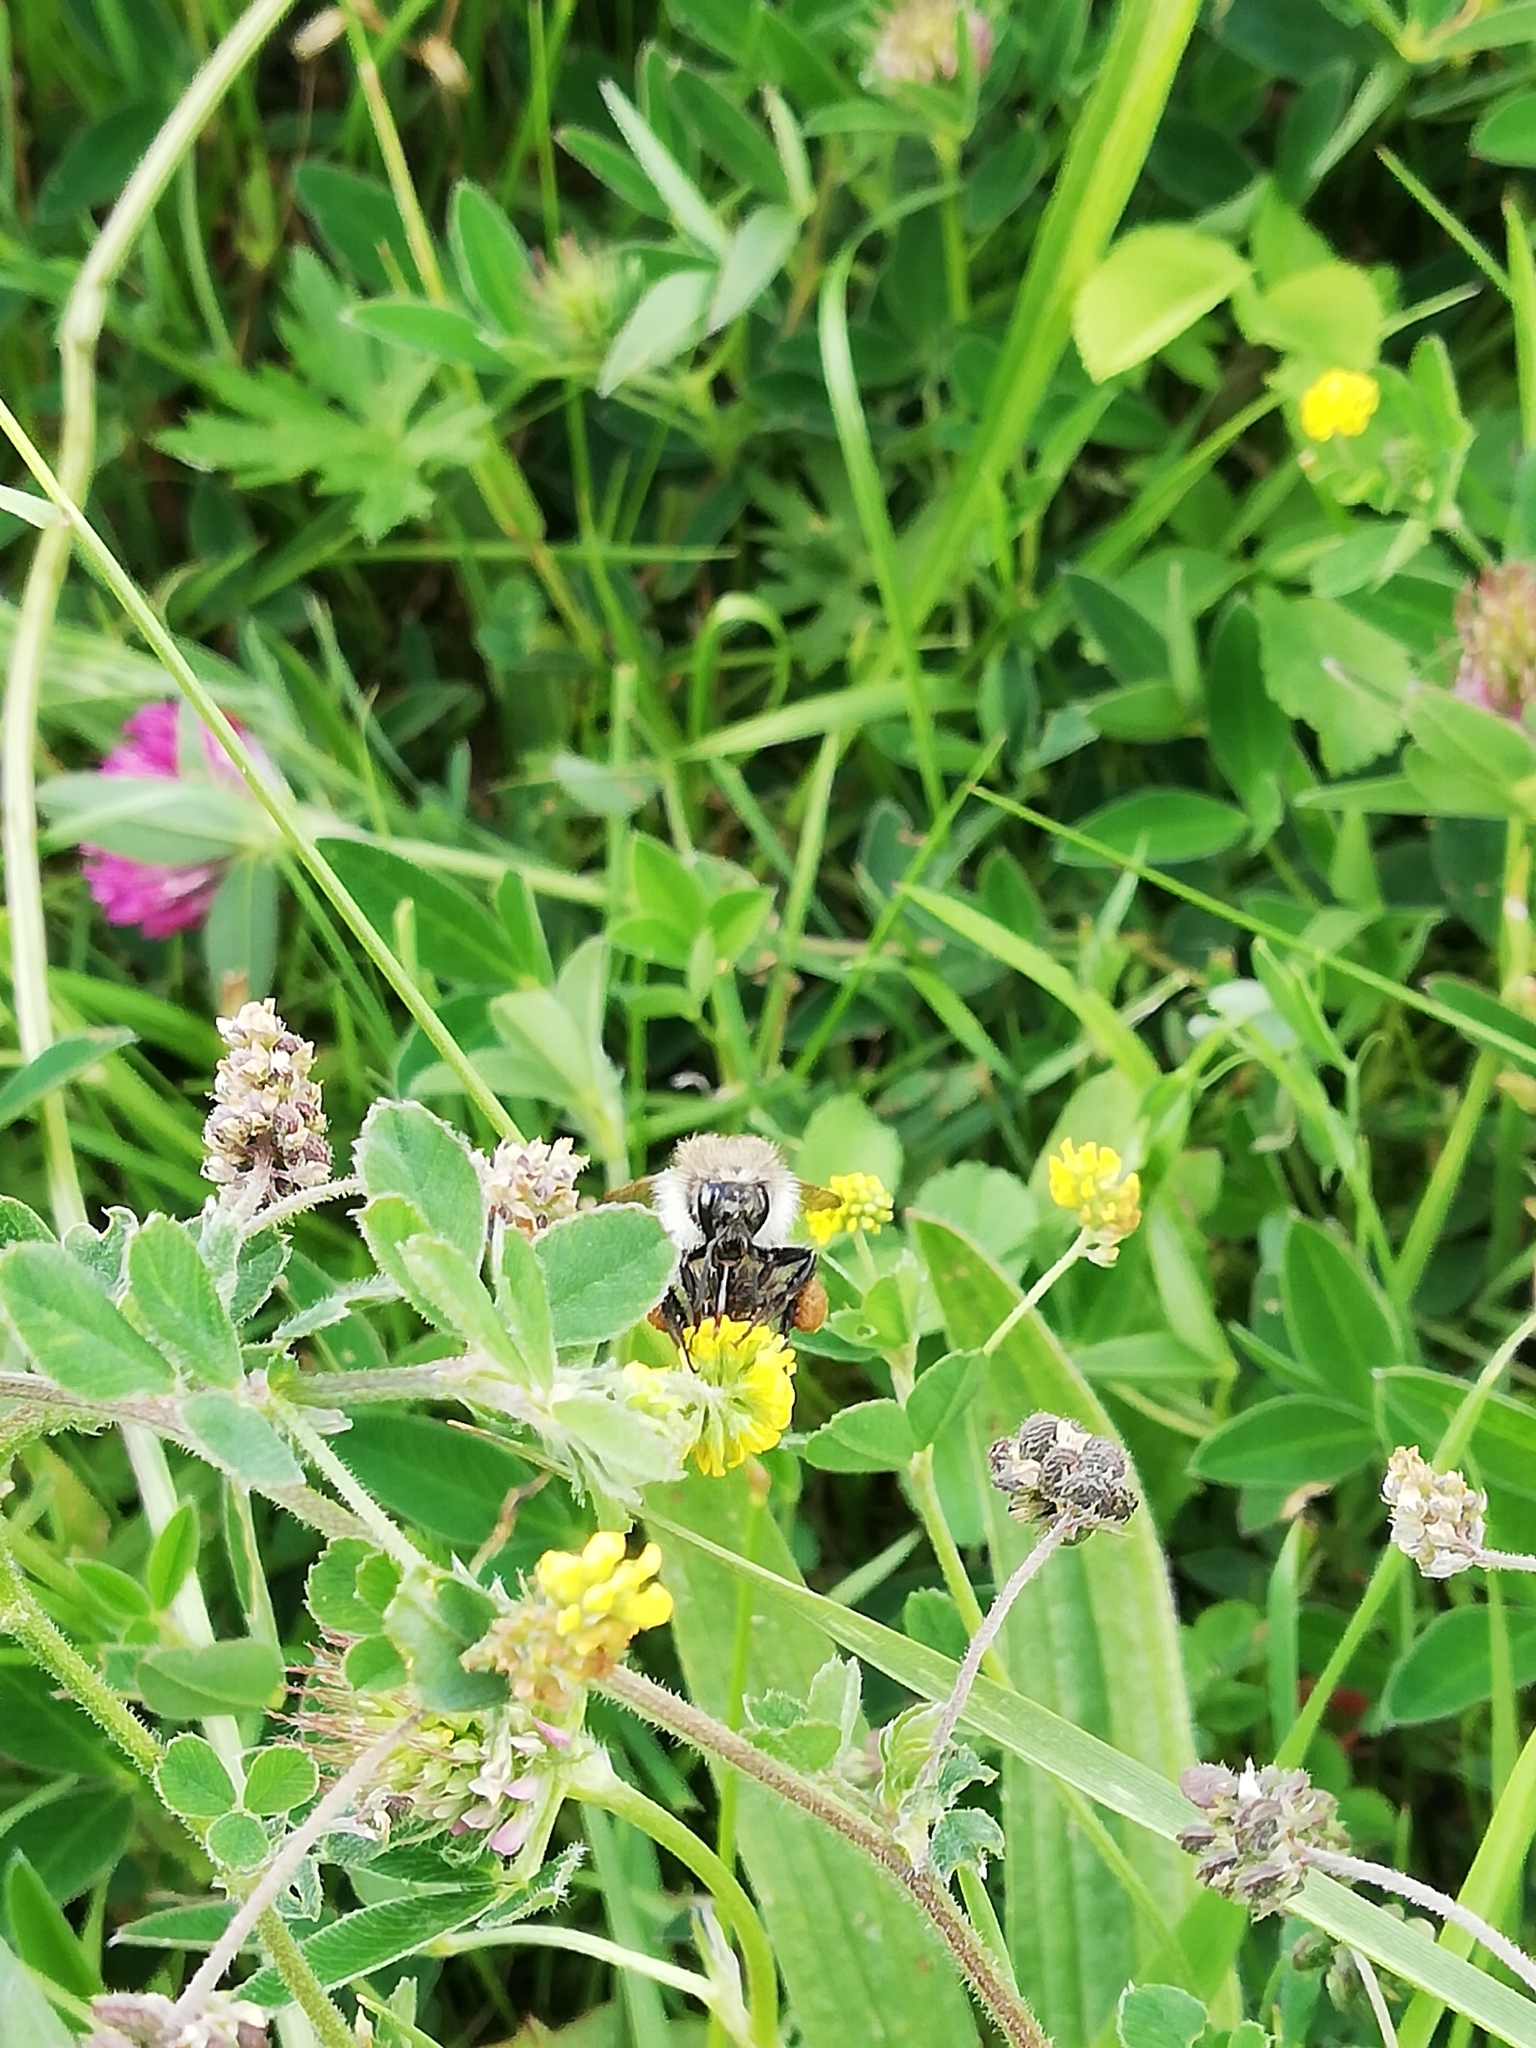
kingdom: Animalia
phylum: Arthropoda
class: Insecta
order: Hymenoptera
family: Apidae
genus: Bombus
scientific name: Bombus pascuorum
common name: Common carder bee
